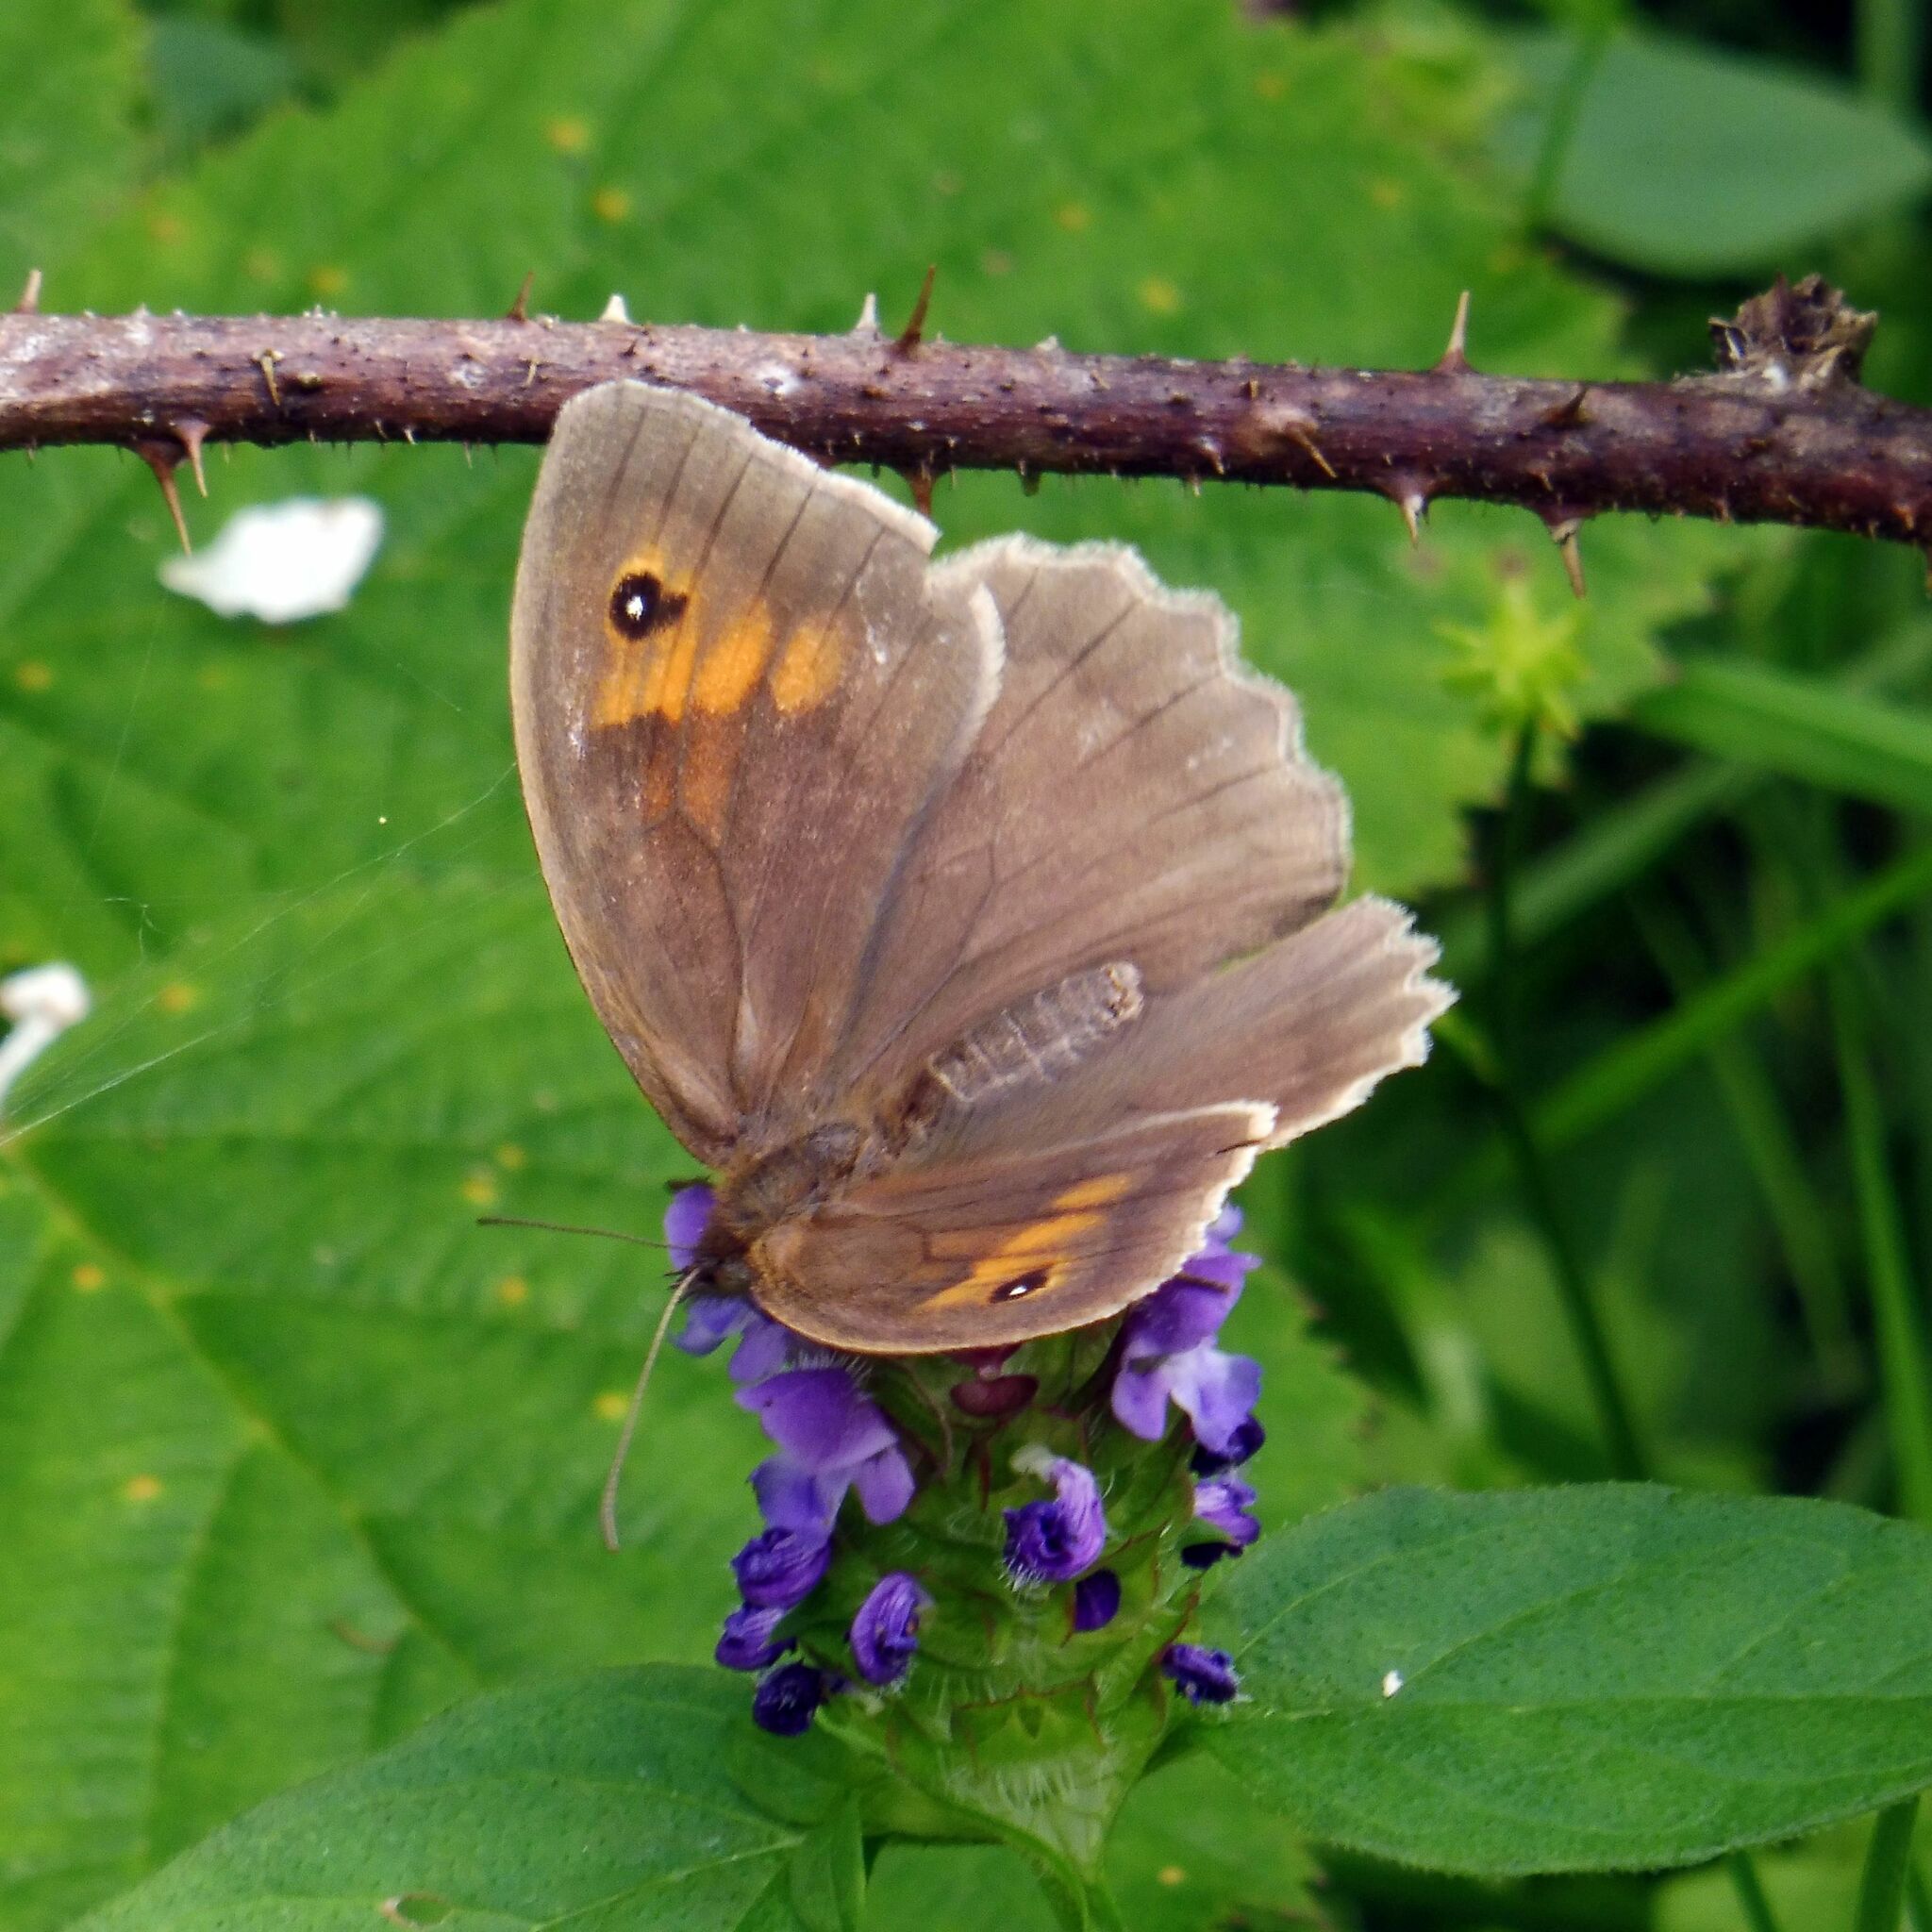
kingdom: Animalia
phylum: Arthropoda
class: Insecta
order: Lepidoptera
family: Nymphalidae
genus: Maniola
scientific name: Maniola jurtina
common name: Meadow brown
